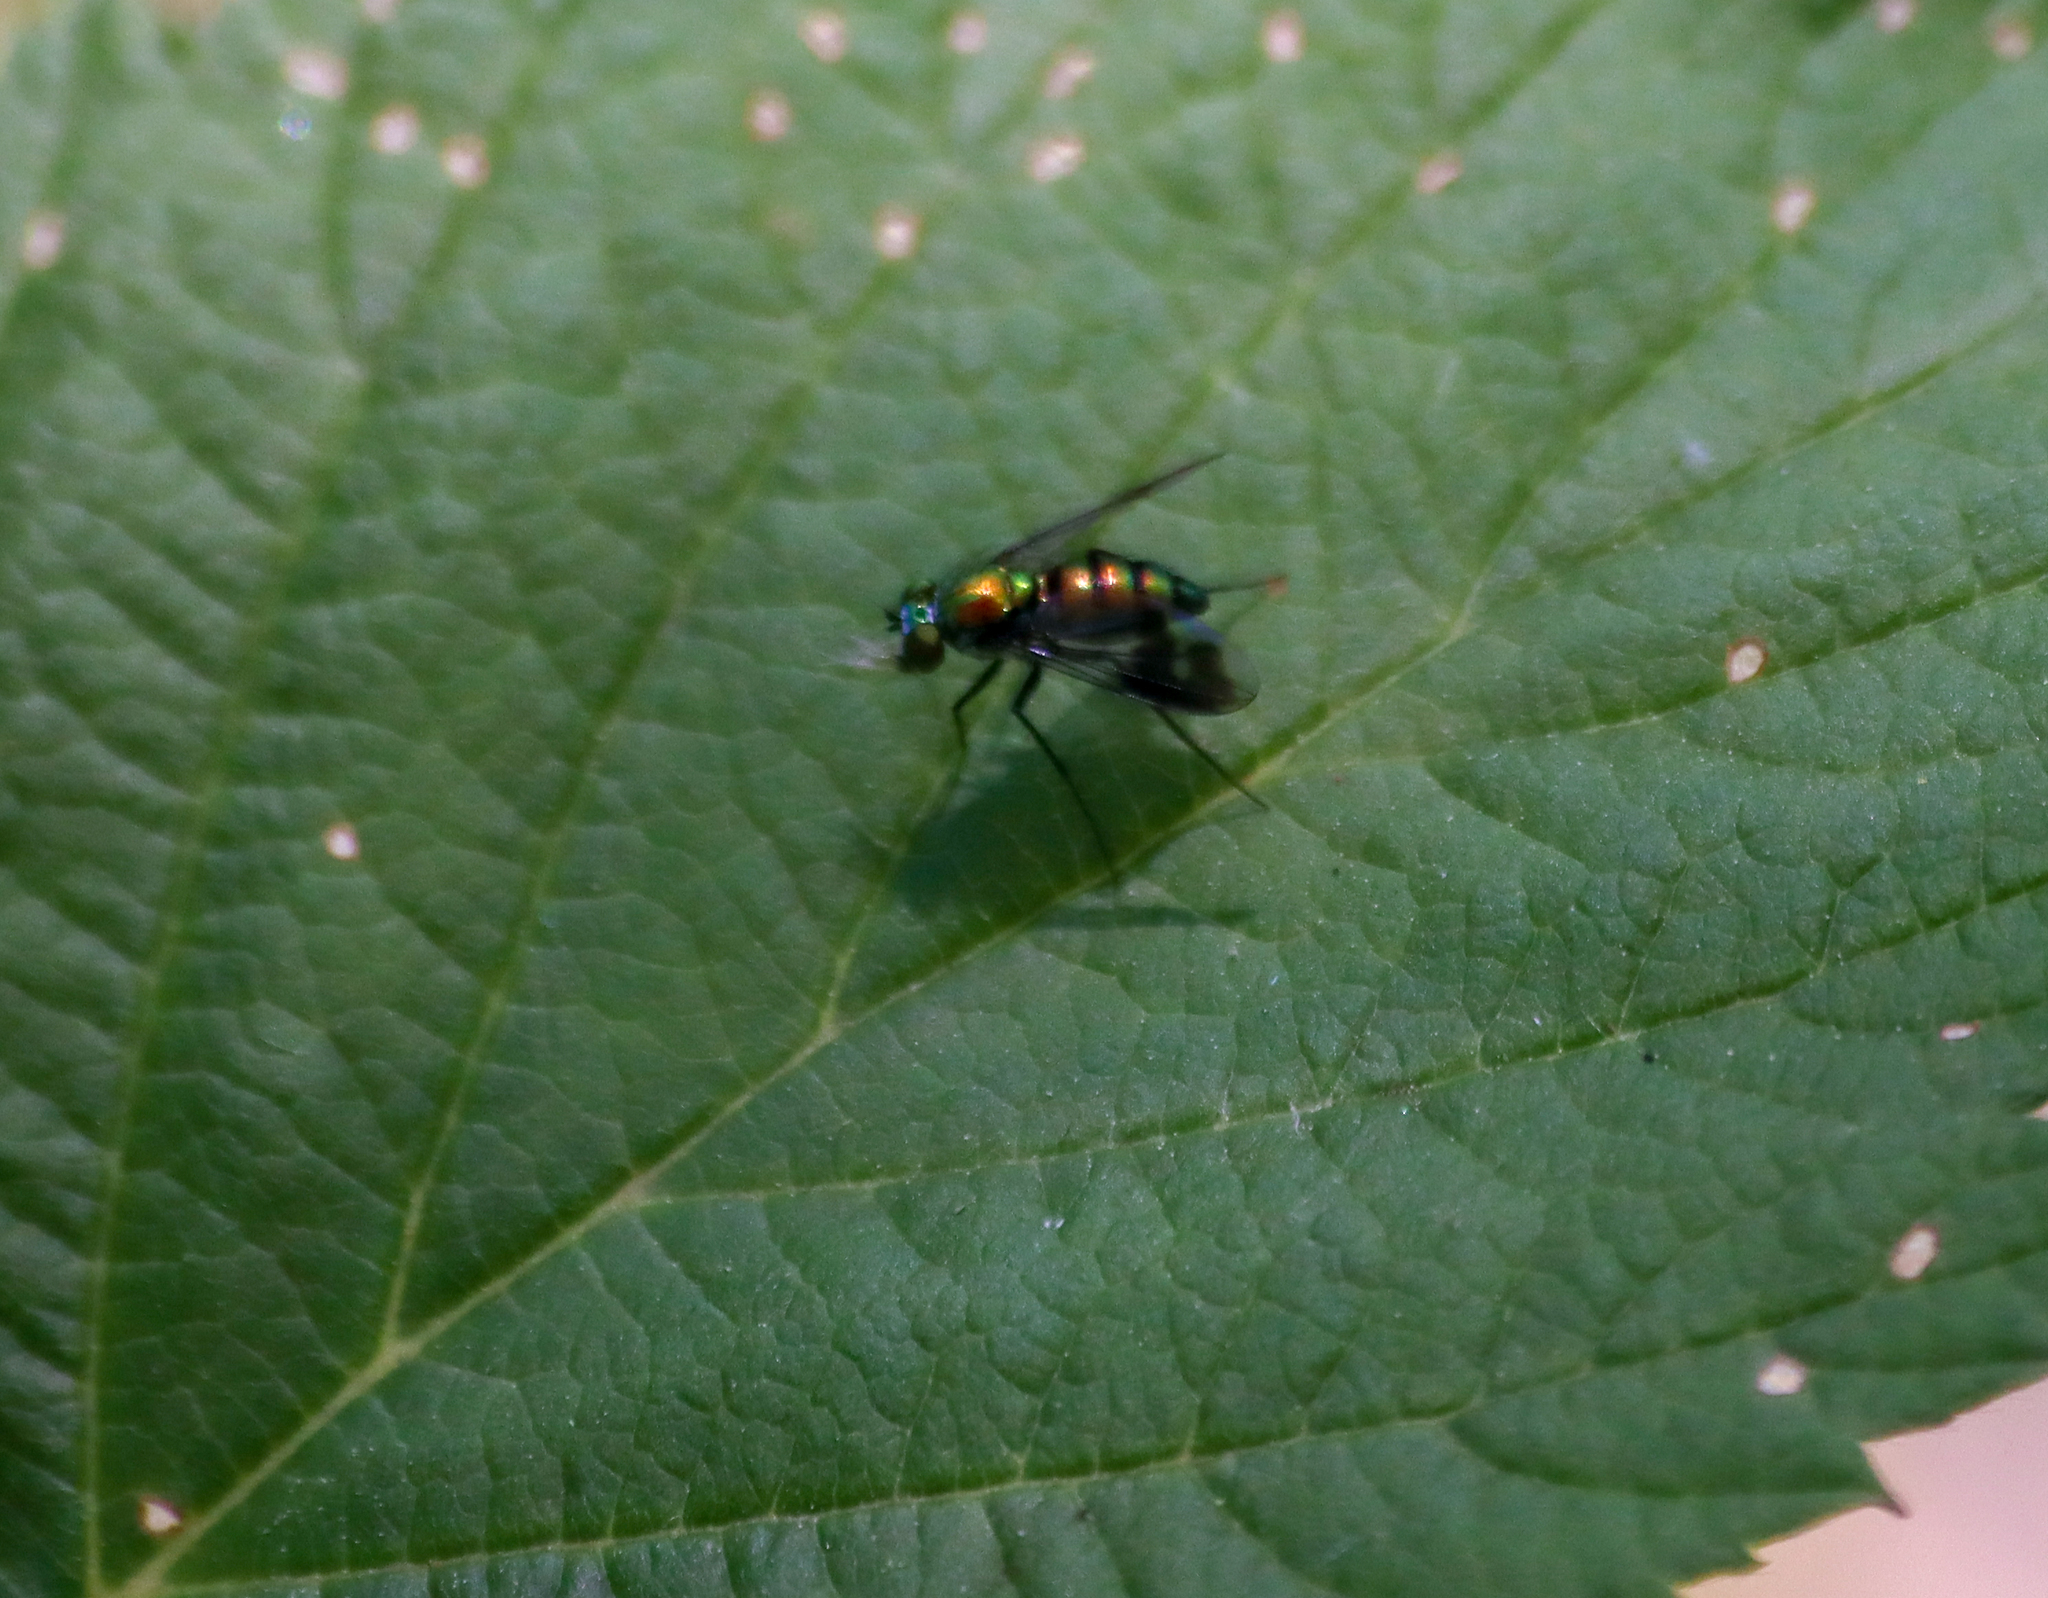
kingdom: Animalia
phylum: Arthropoda
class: Insecta
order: Diptera
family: Dolichopodidae
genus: Condylostylus
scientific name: Condylostylus patibulatus
